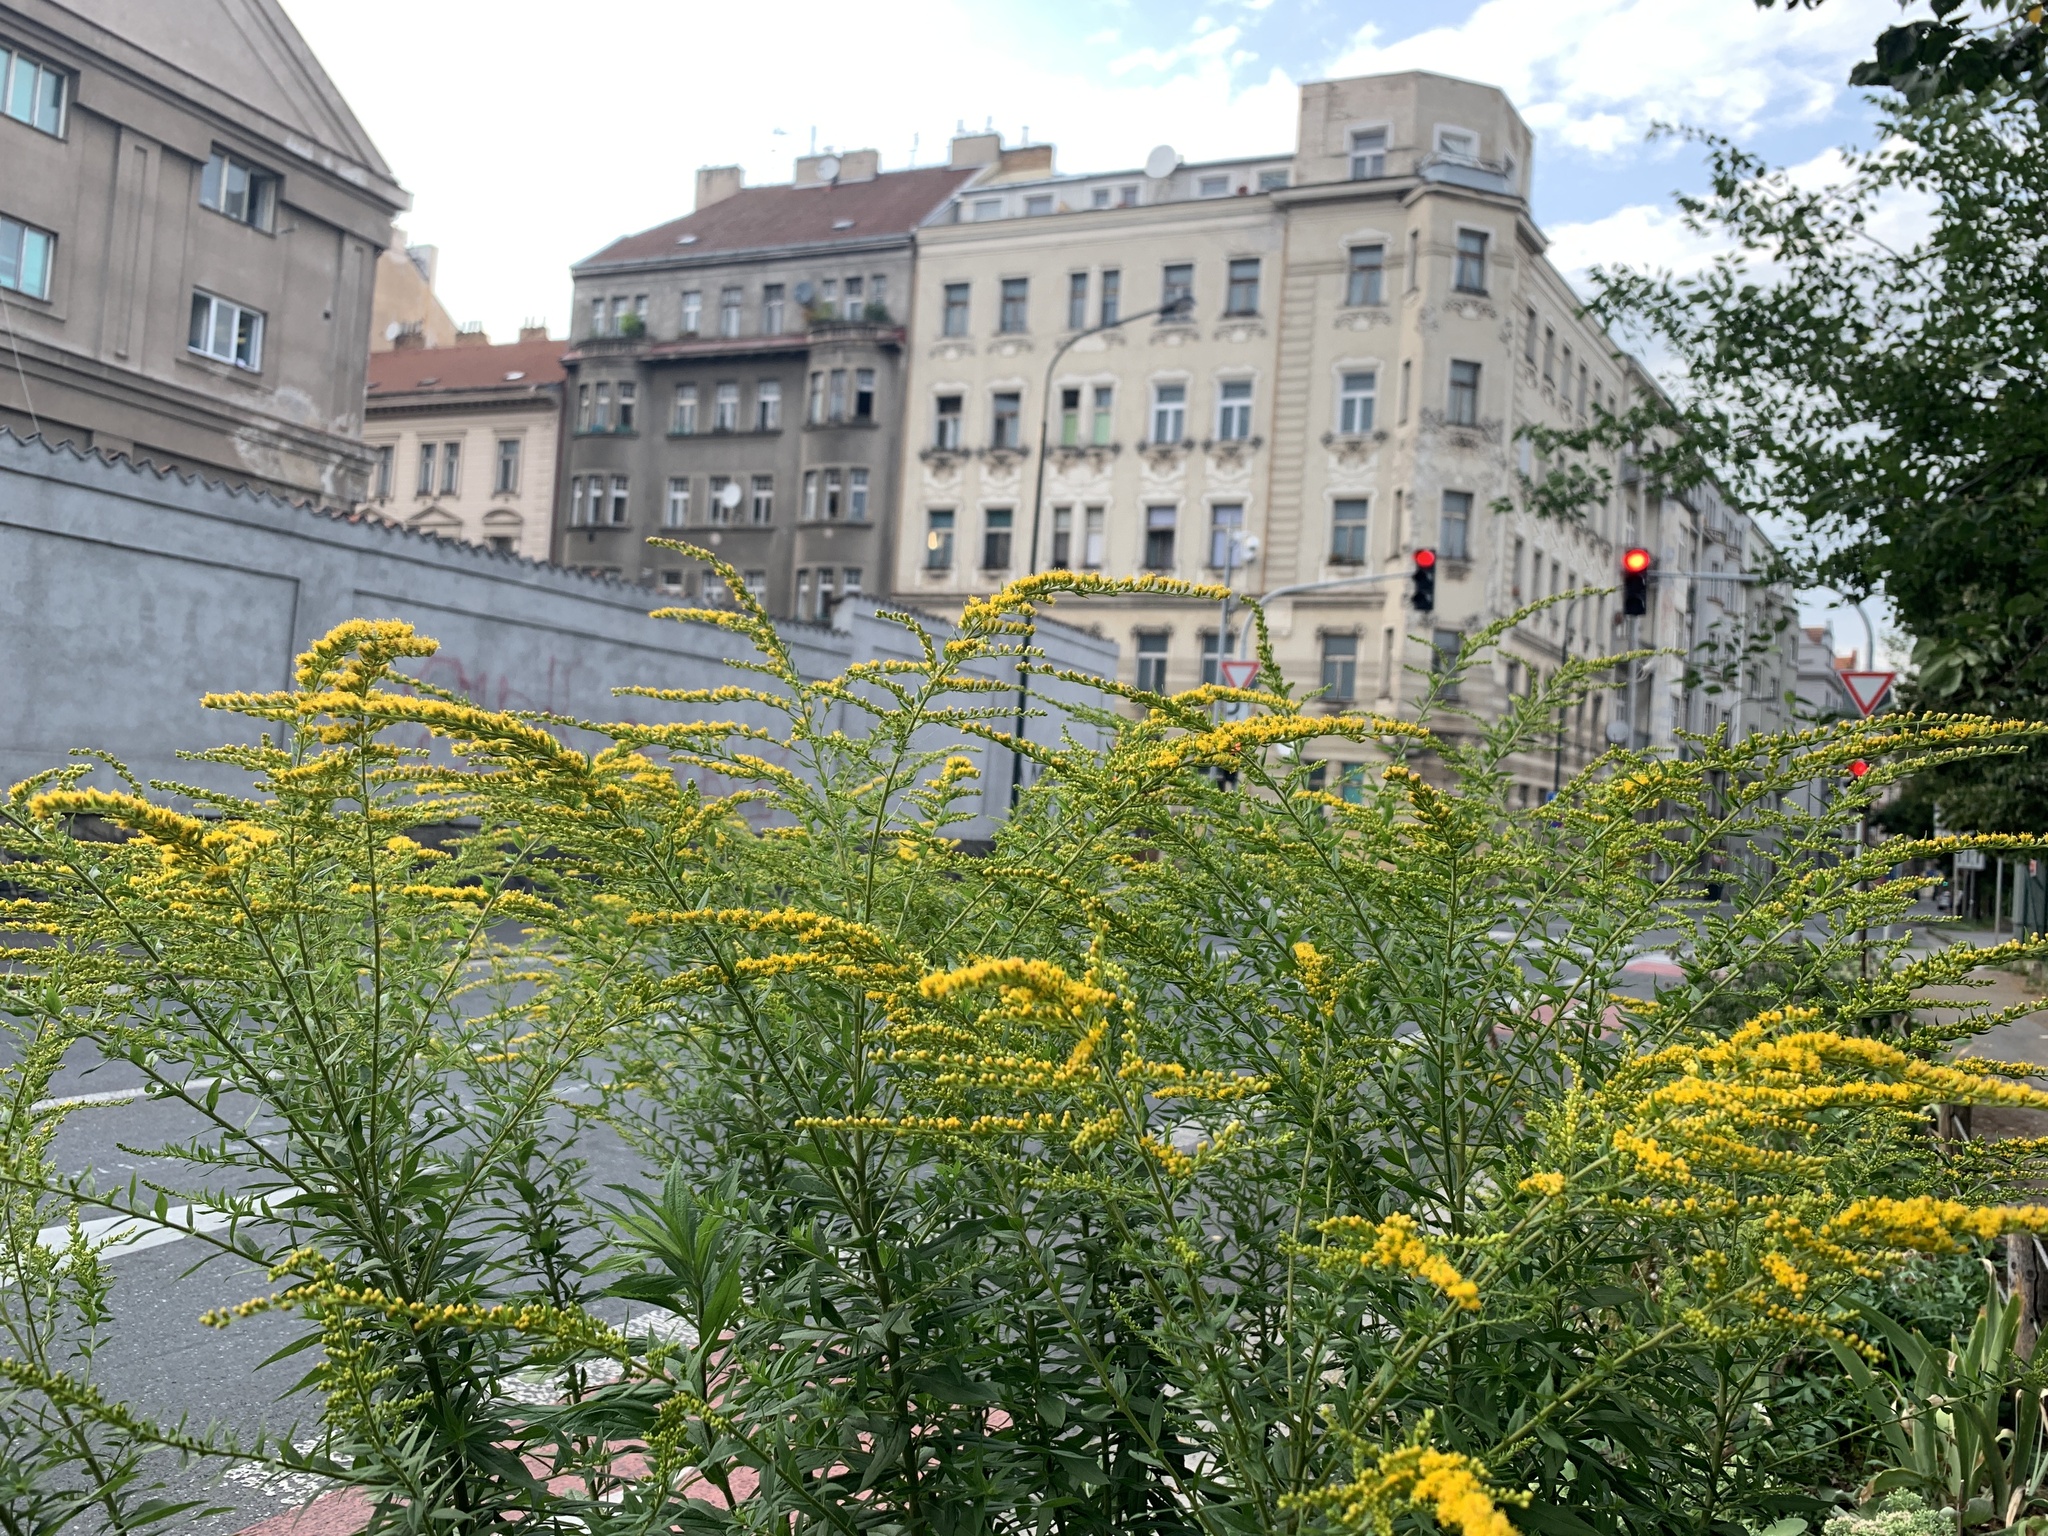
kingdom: Plantae
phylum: Tracheophyta
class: Magnoliopsida
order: Asterales
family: Asteraceae
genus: Solidago
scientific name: Solidago canadensis
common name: Canada goldenrod
